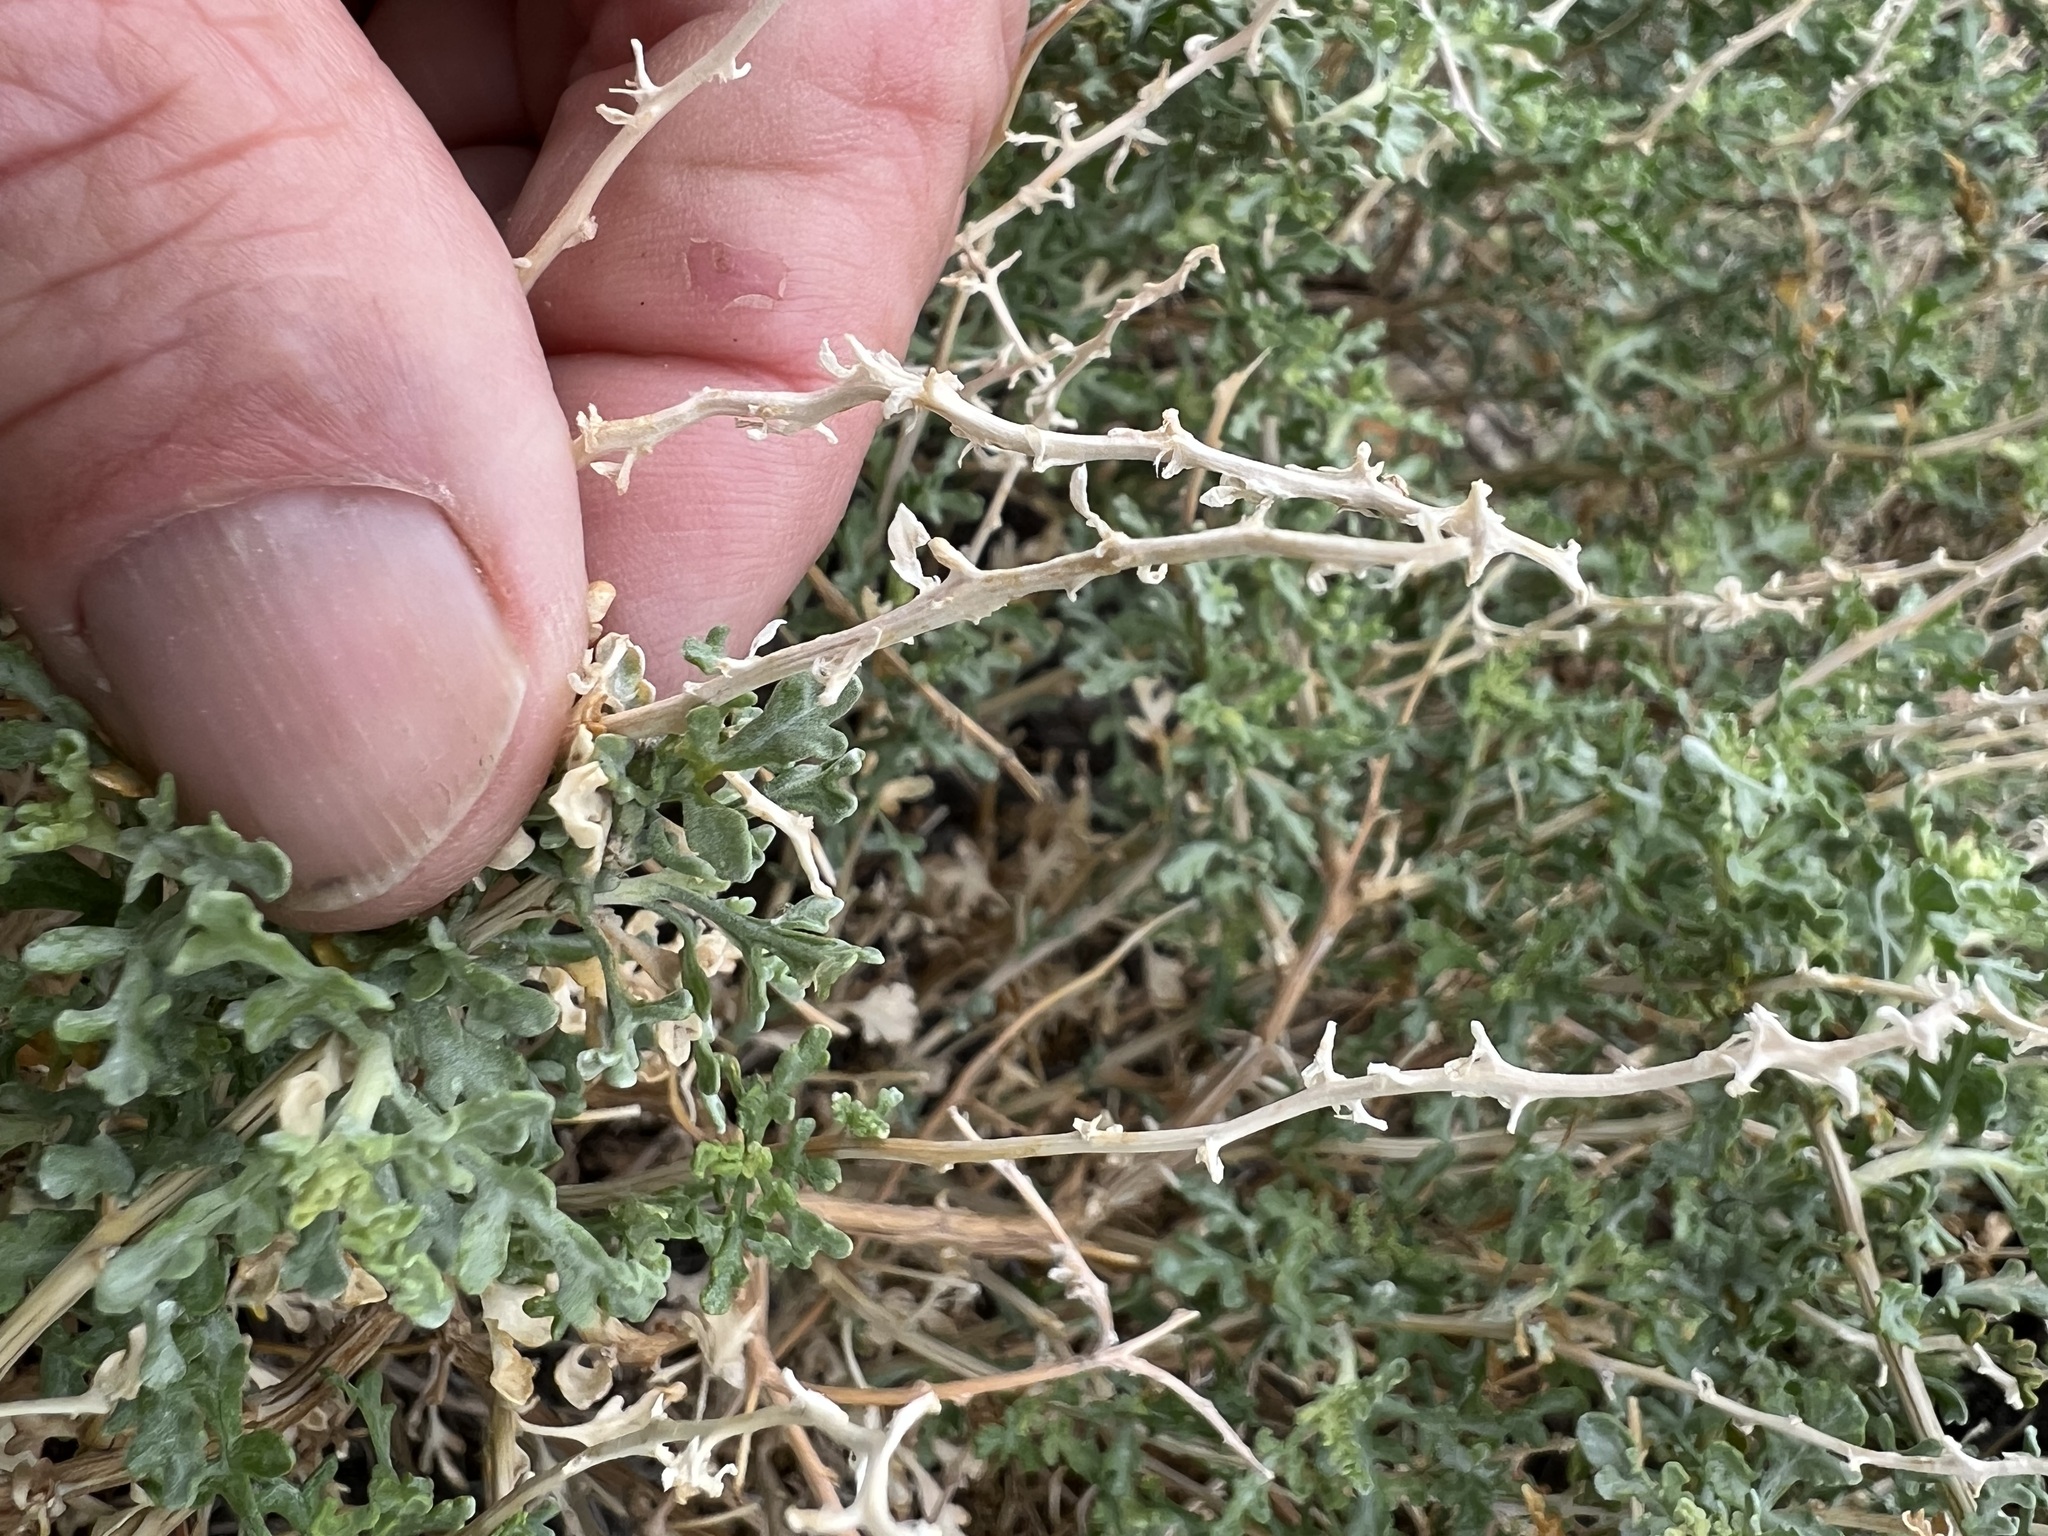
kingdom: Plantae
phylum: Tracheophyta
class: Magnoliopsida
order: Asterales
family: Asteraceae
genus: Ambrosia
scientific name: Ambrosia dumosa
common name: Bur-sage
